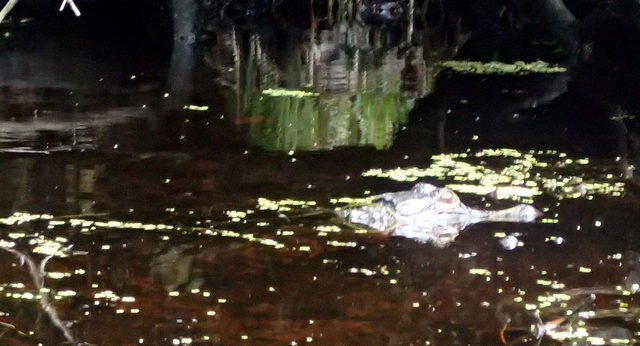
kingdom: Animalia
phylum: Chordata
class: Crocodylia
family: Alligatoridae
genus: Alligator
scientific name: Alligator mississippiensis
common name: American alligator
